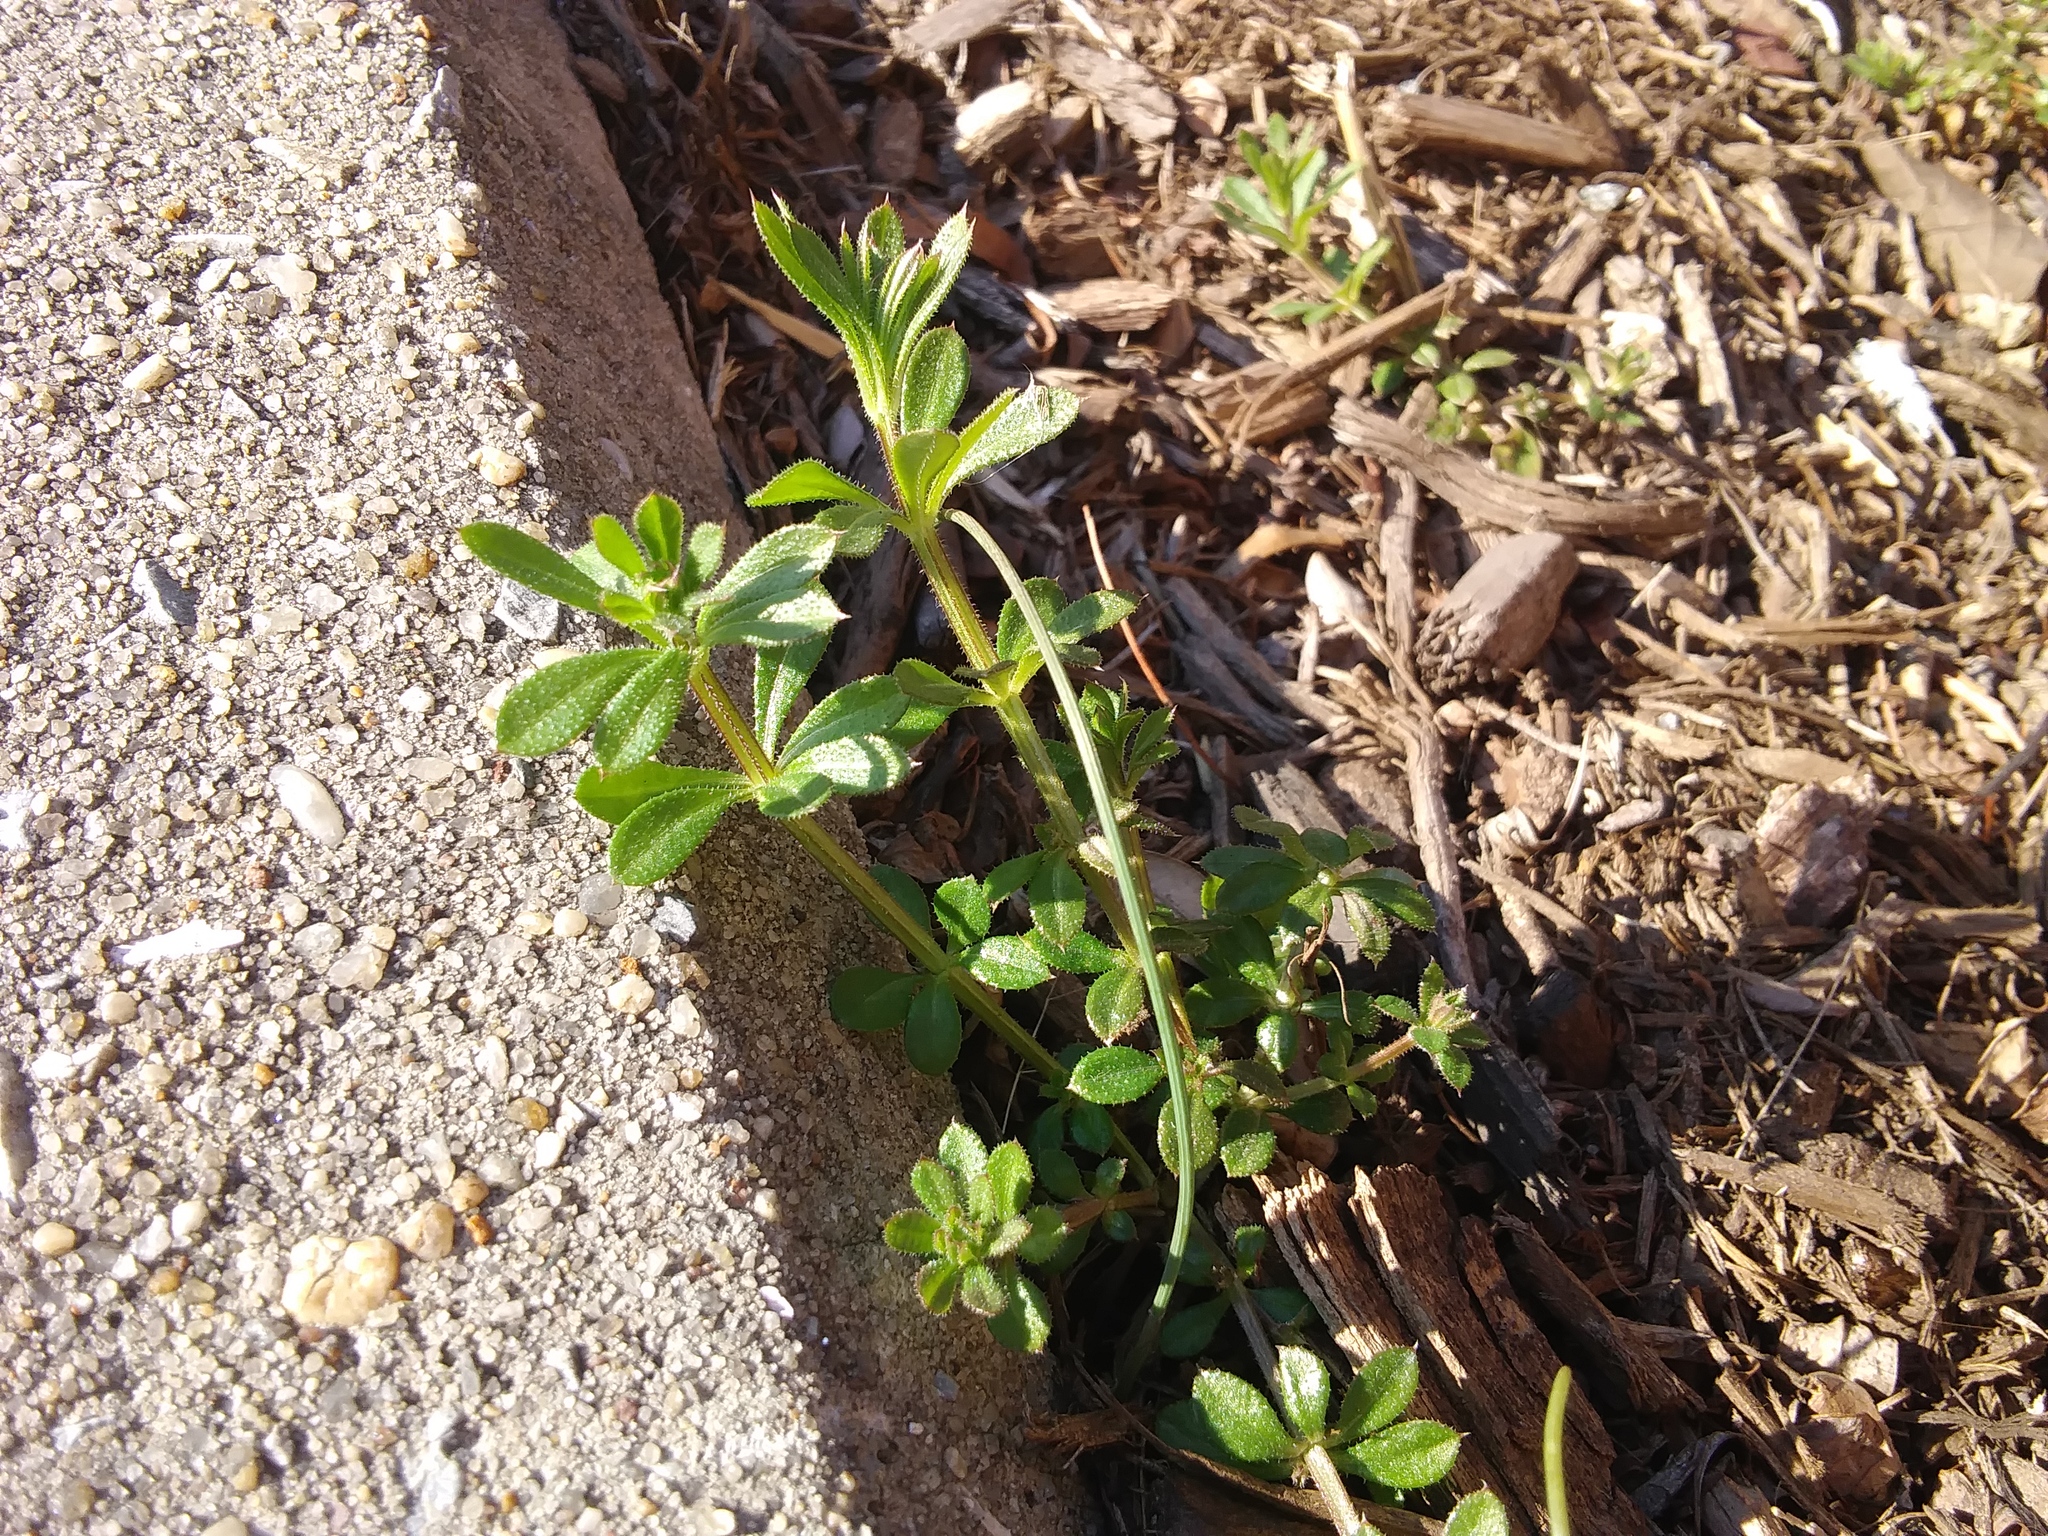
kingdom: Plantae
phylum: Tracheophyta
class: Magnoliopsida
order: Gentianales
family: Rubiaceae
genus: Galium
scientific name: Galium aparine
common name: Cleavers
